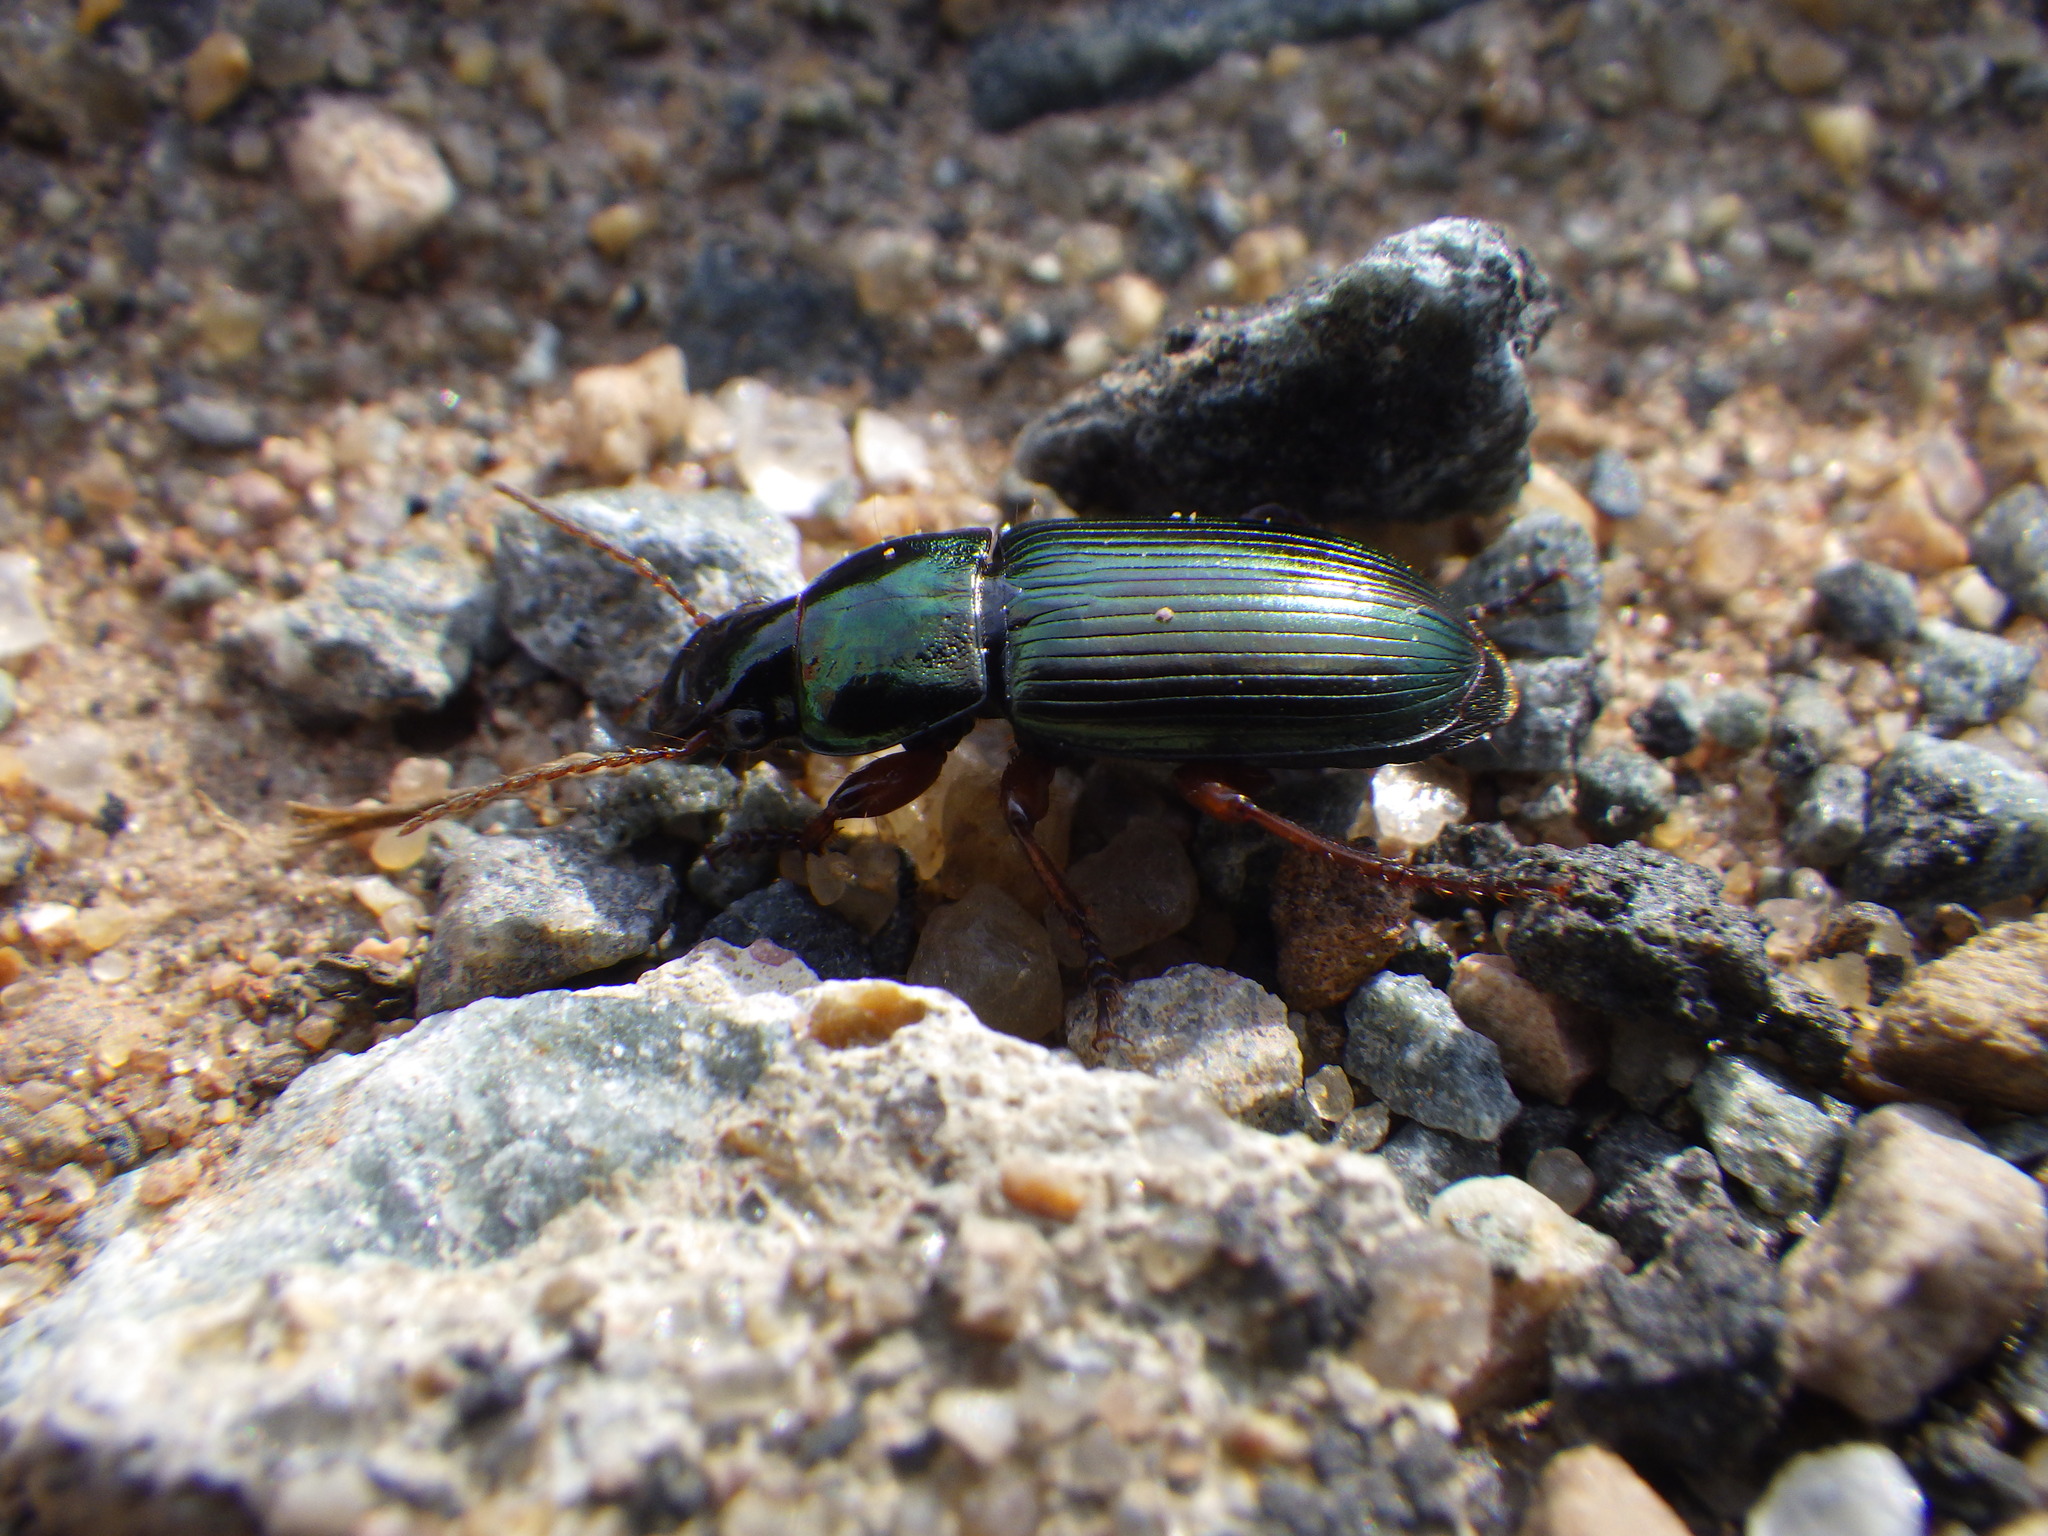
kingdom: Animalia
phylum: Arthropoda
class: Insecta
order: Coleoptera
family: Carabidae
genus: Harpalus
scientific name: Harpalus affinis
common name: Polychrome harp ground beetle
